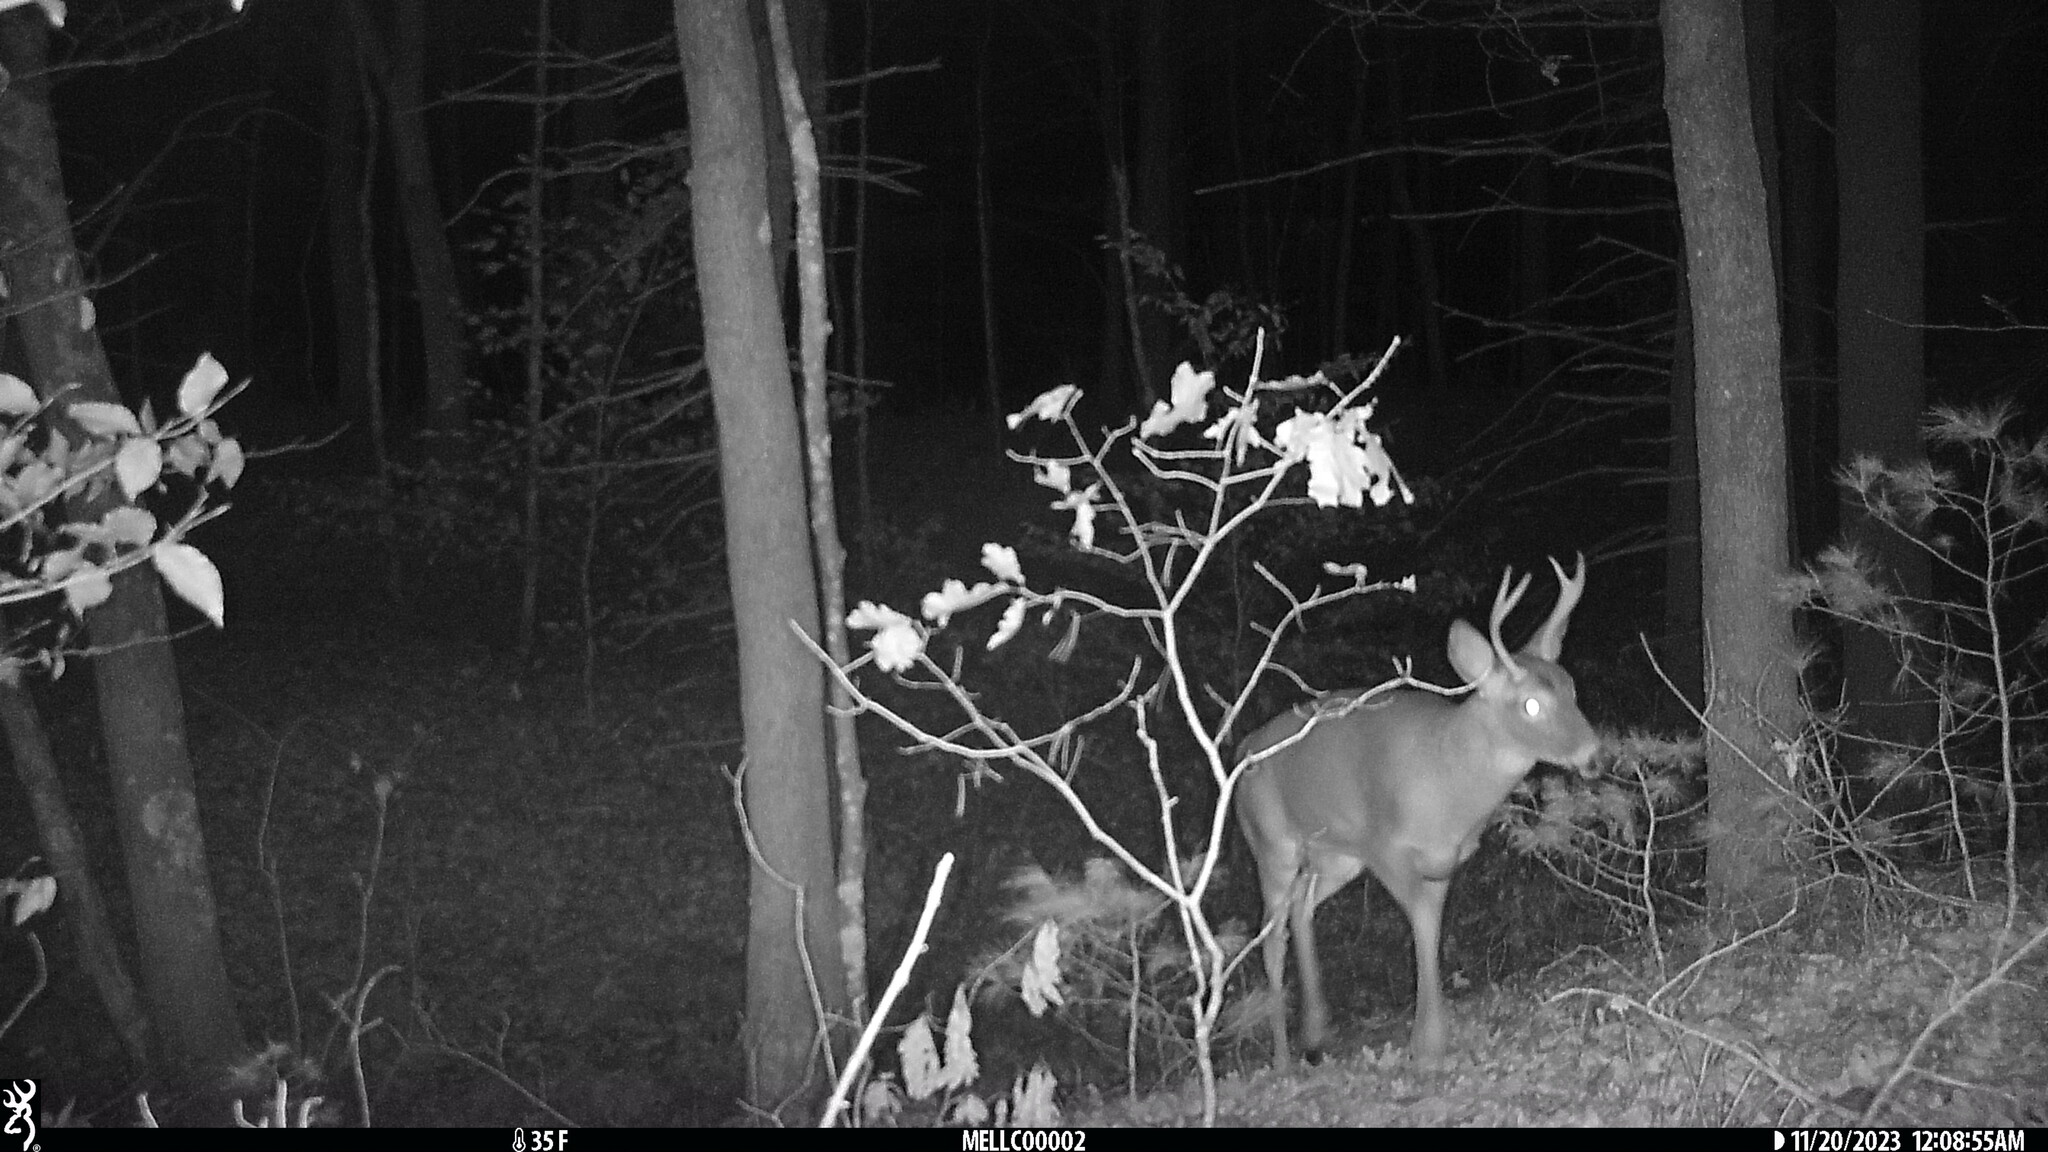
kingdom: Animalia
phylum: Chordata
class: Mammalia
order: Artiodactyla
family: Cervidae
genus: Odocoileus
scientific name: Odocoileus virginianus
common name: White-tailed deer
